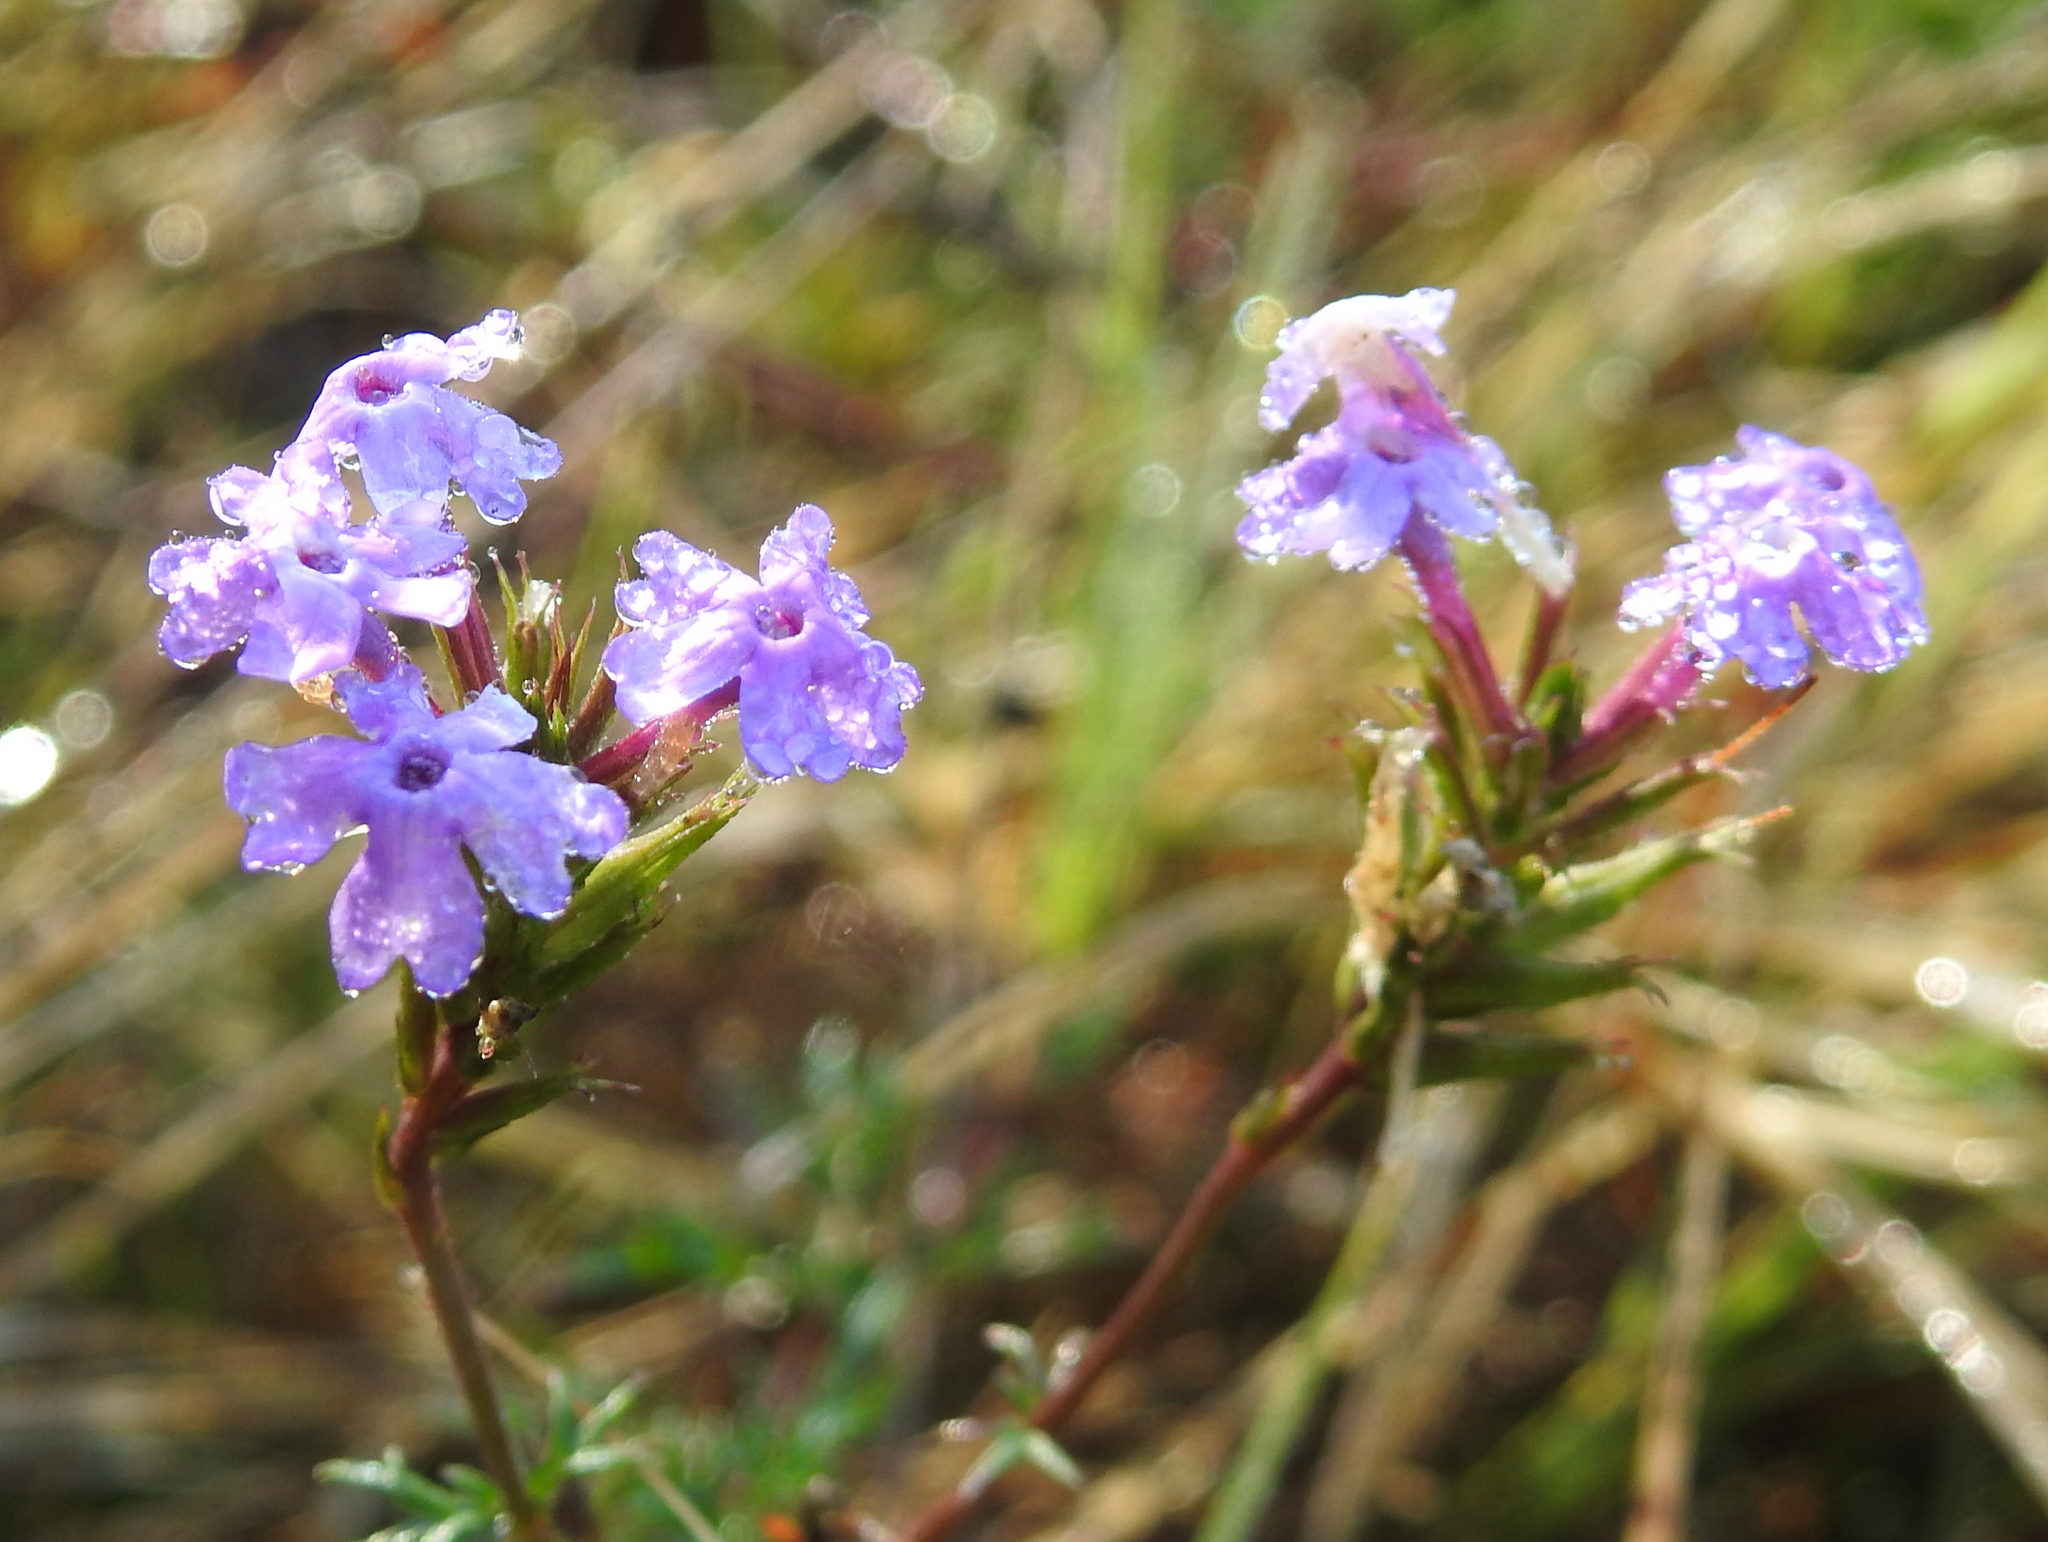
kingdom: Plantae
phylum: Tracheophyta
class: Magnoliopsida
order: Lamiales
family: Verbenaceae
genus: Verbena
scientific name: Verbena aristigera
